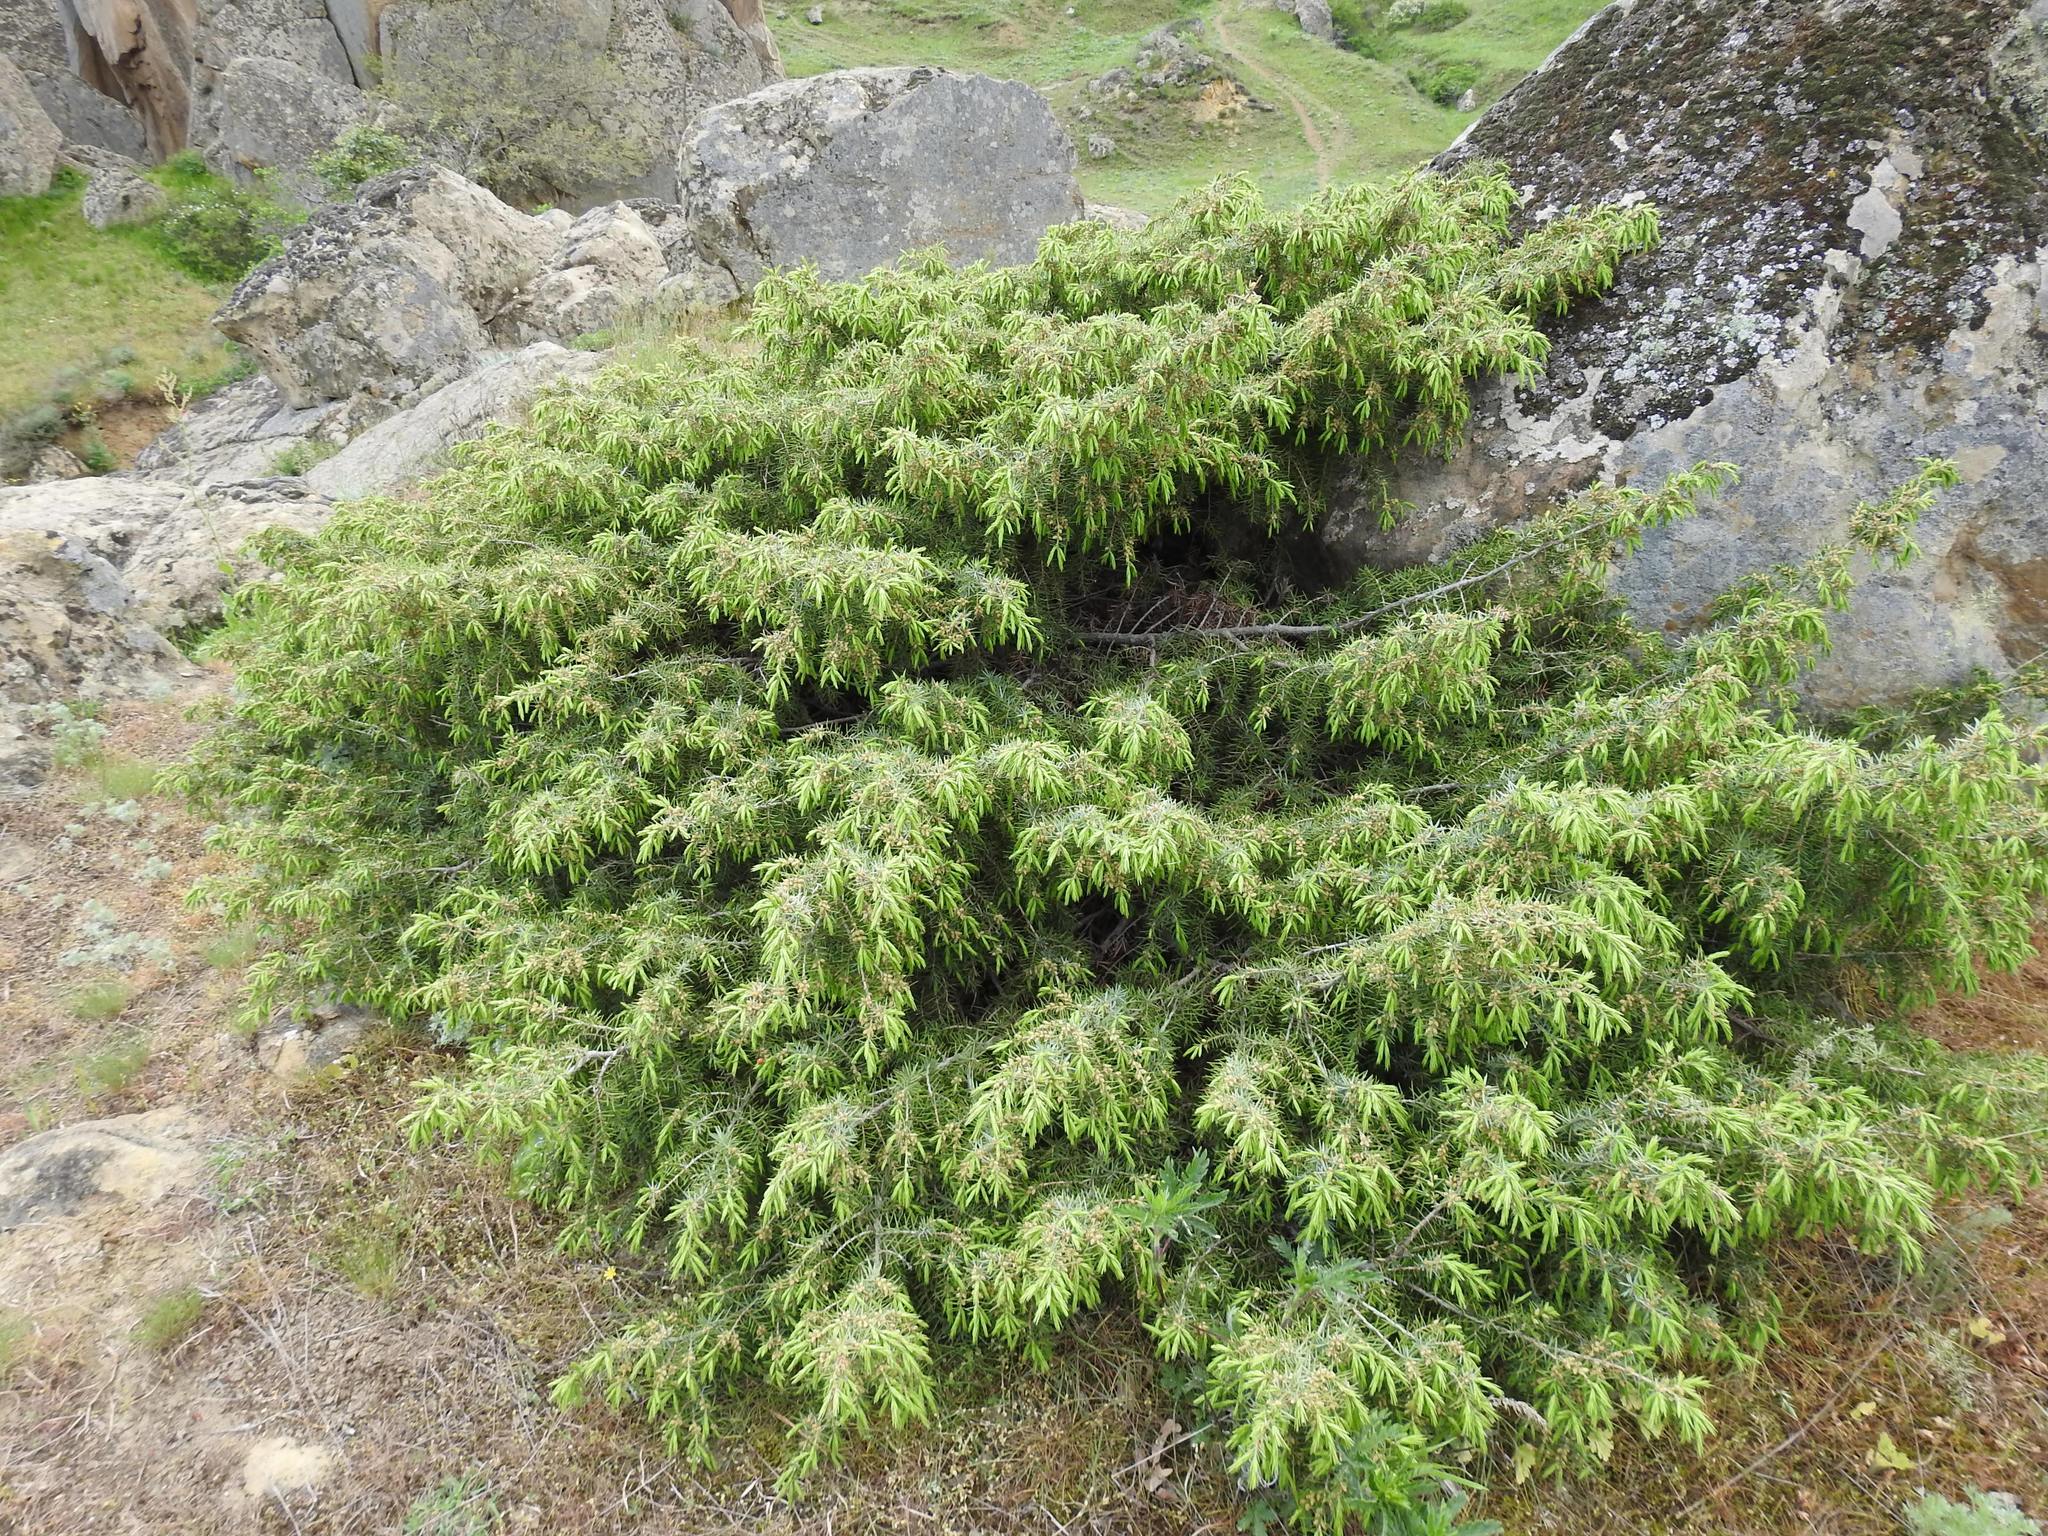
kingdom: Plantae
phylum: Tracheophyta
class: Pinopsida
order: Pinales
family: Cupressaceae
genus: Juniperus
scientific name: Juniperus communis
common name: Common juniper
